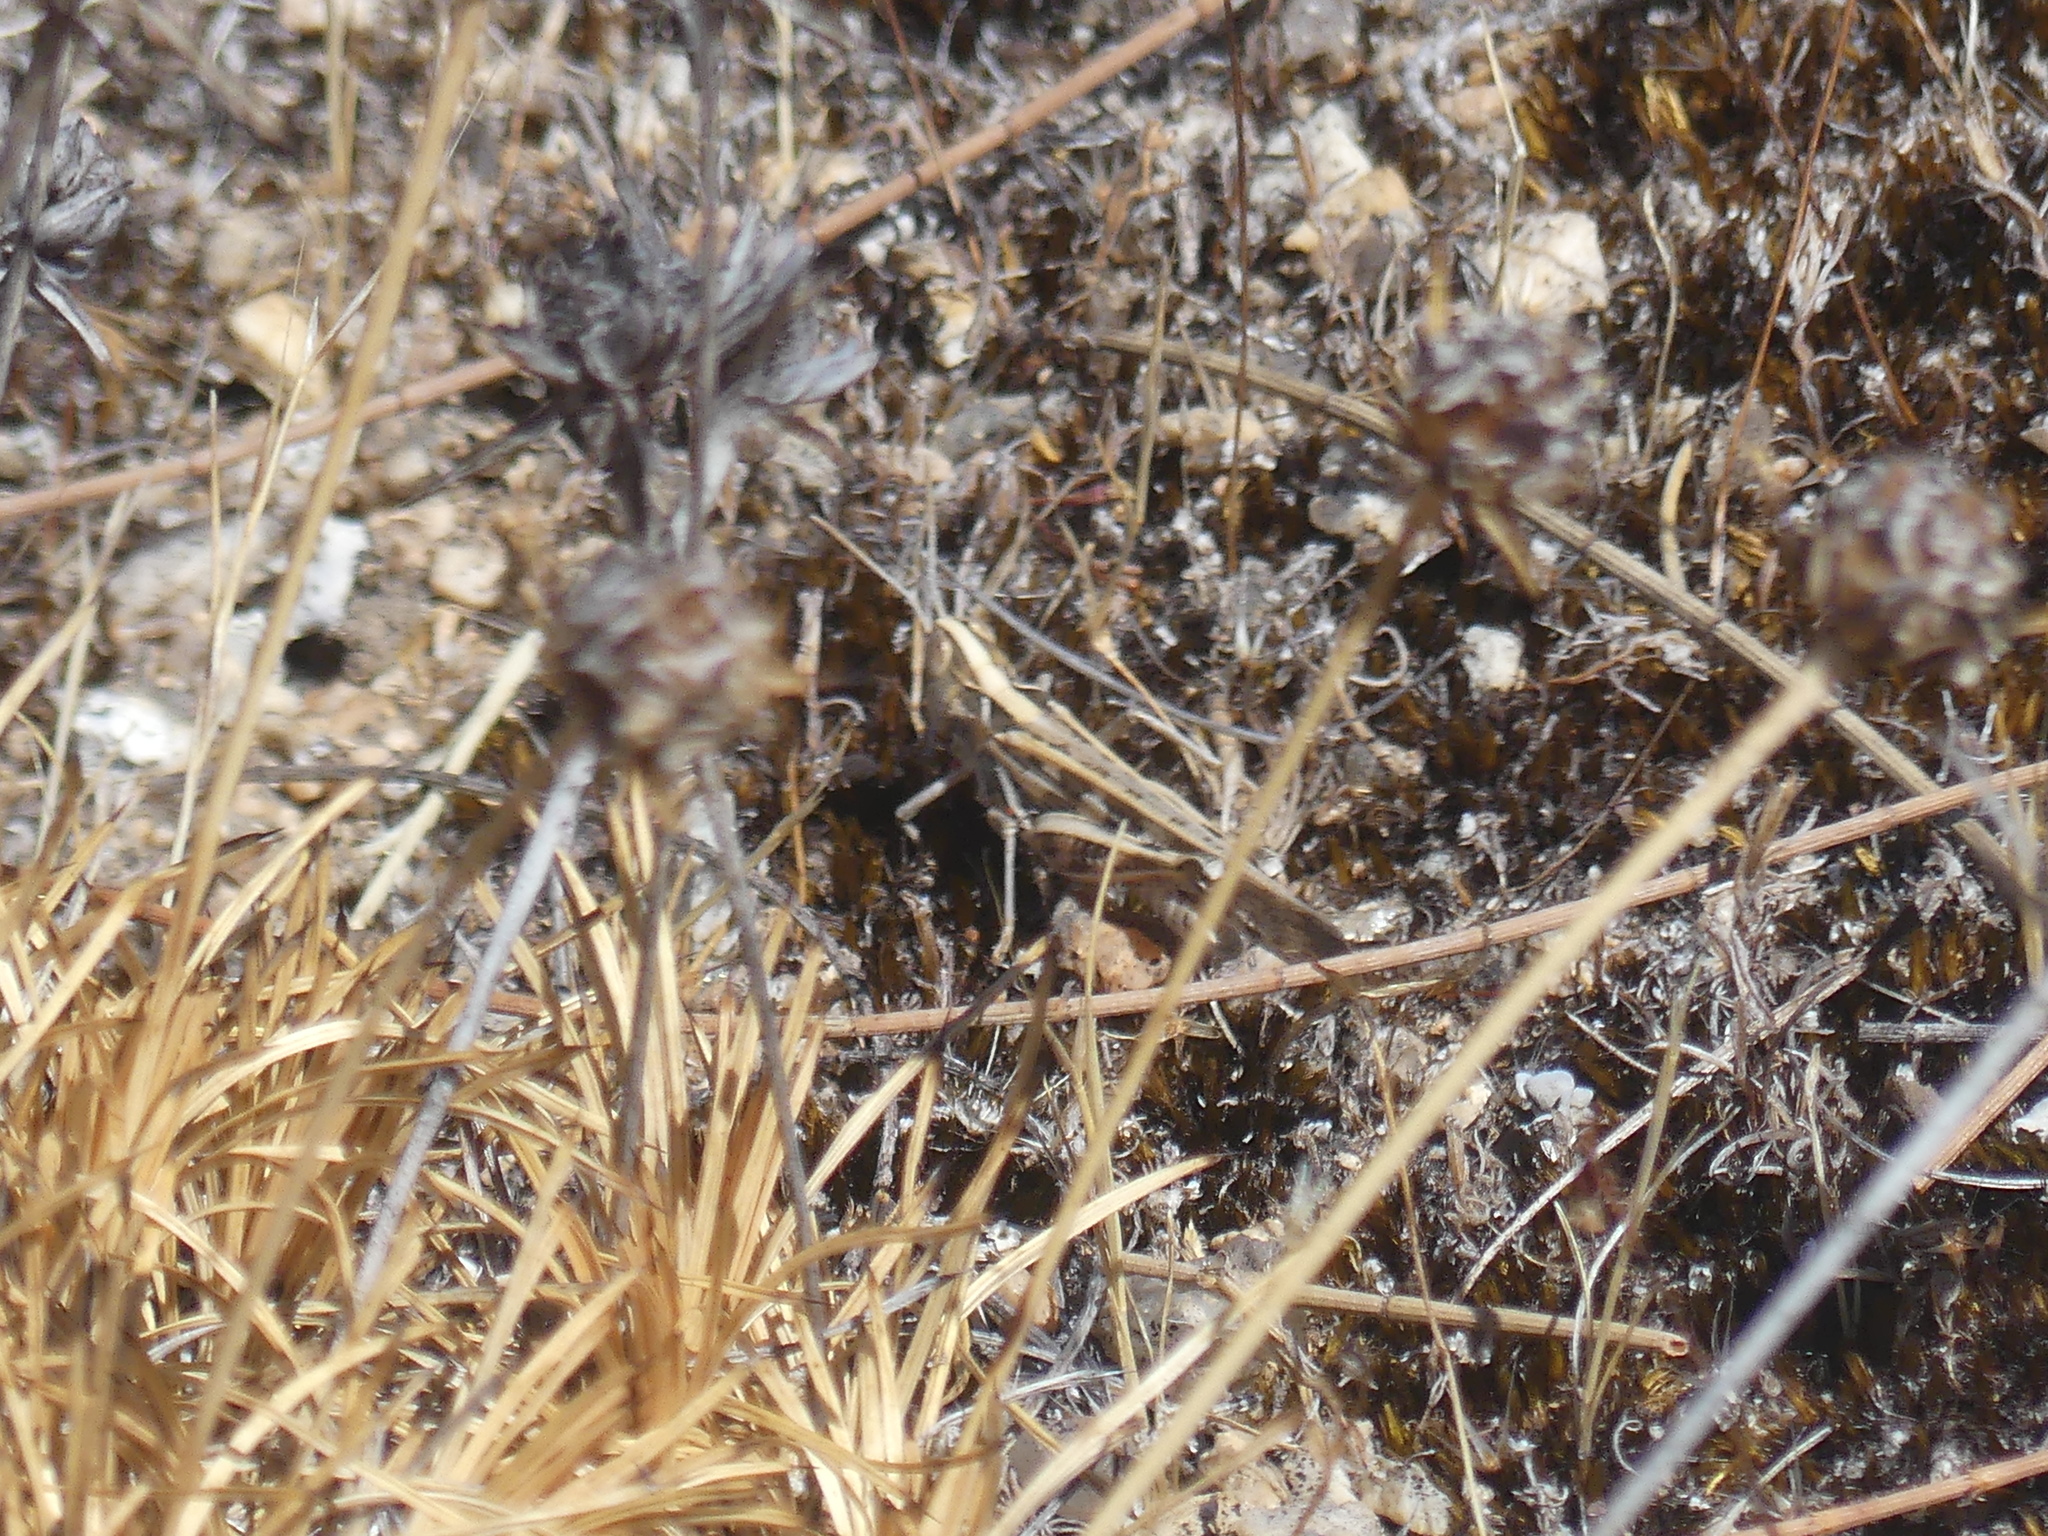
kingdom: Animalia
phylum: Arthropoda
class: Insecta
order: Orthoptera
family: Acrididae
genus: Chortoicetes
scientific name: Chortoicetes terminifera
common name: Australian plague locust
